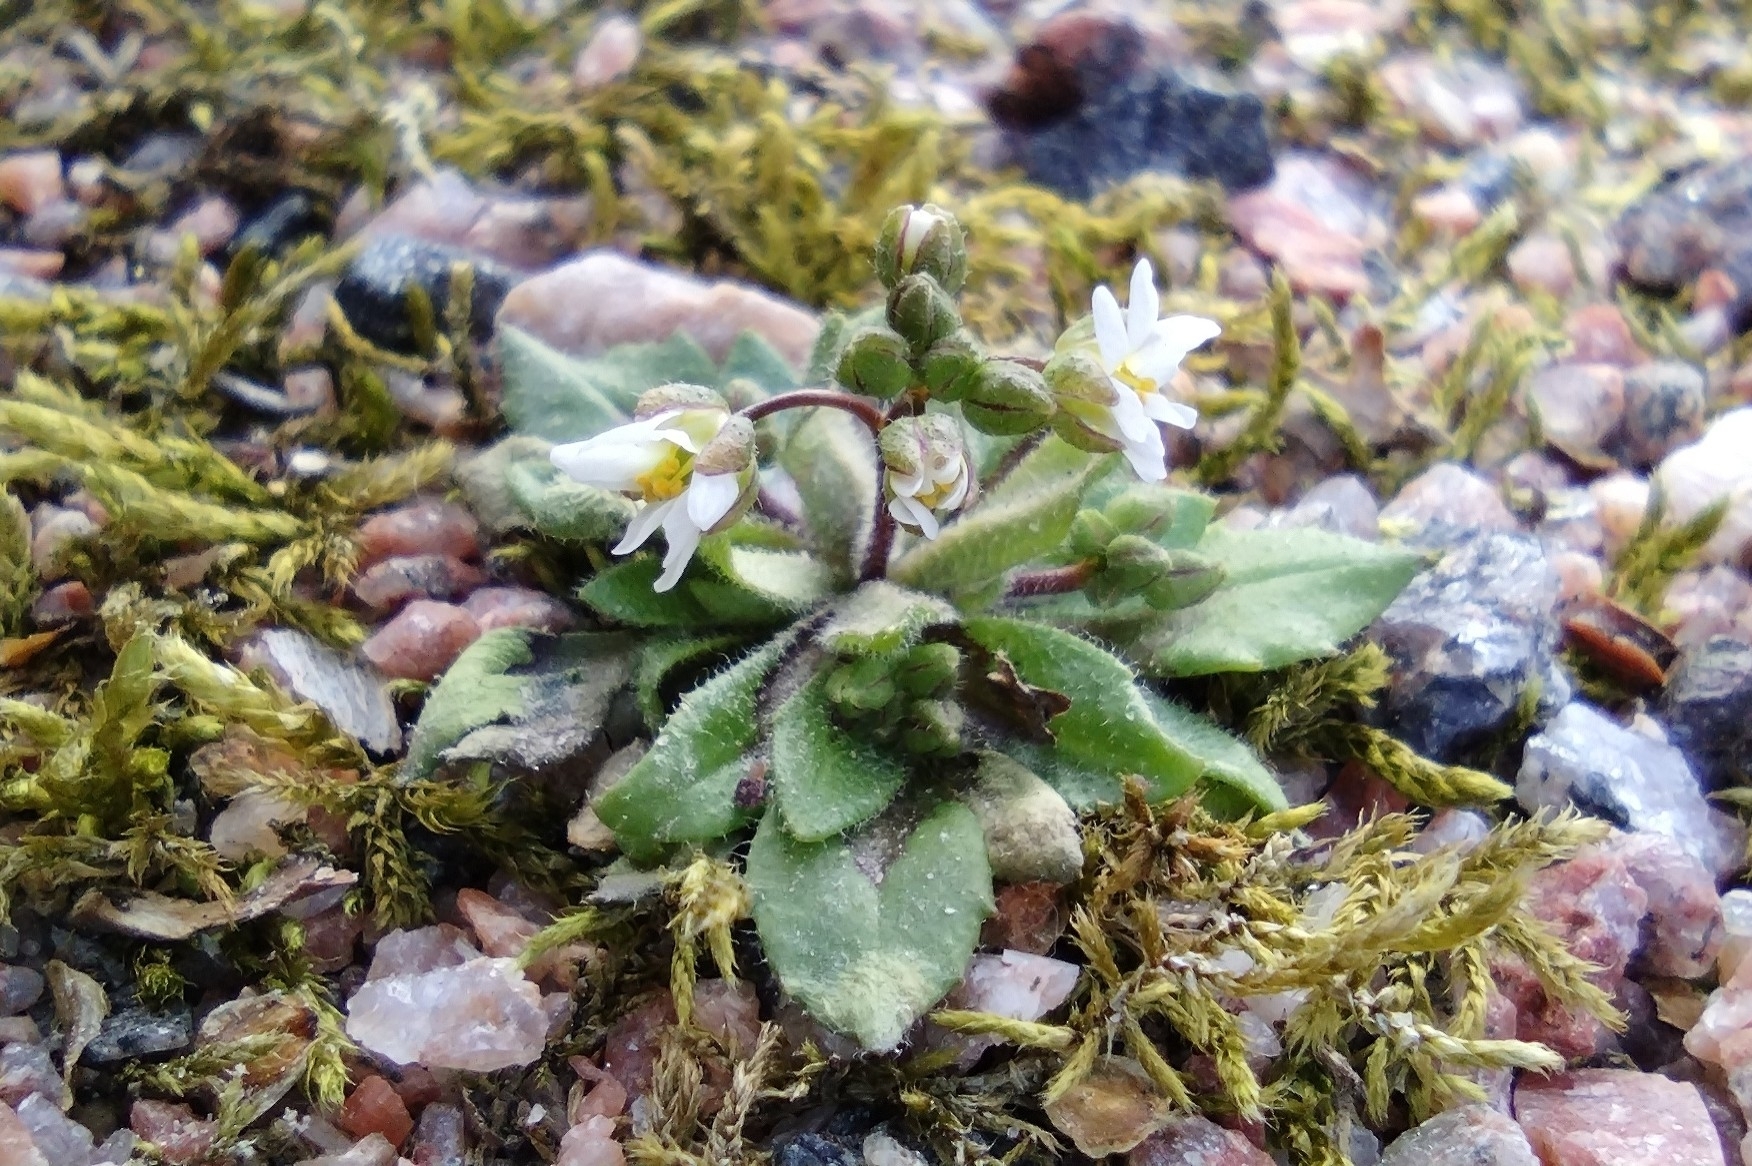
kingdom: Plantae
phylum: Tracheophyta
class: Magnoliopsida
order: Brassicales
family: Brassicaceae
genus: Draba
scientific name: Draba verna
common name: Spring draba
